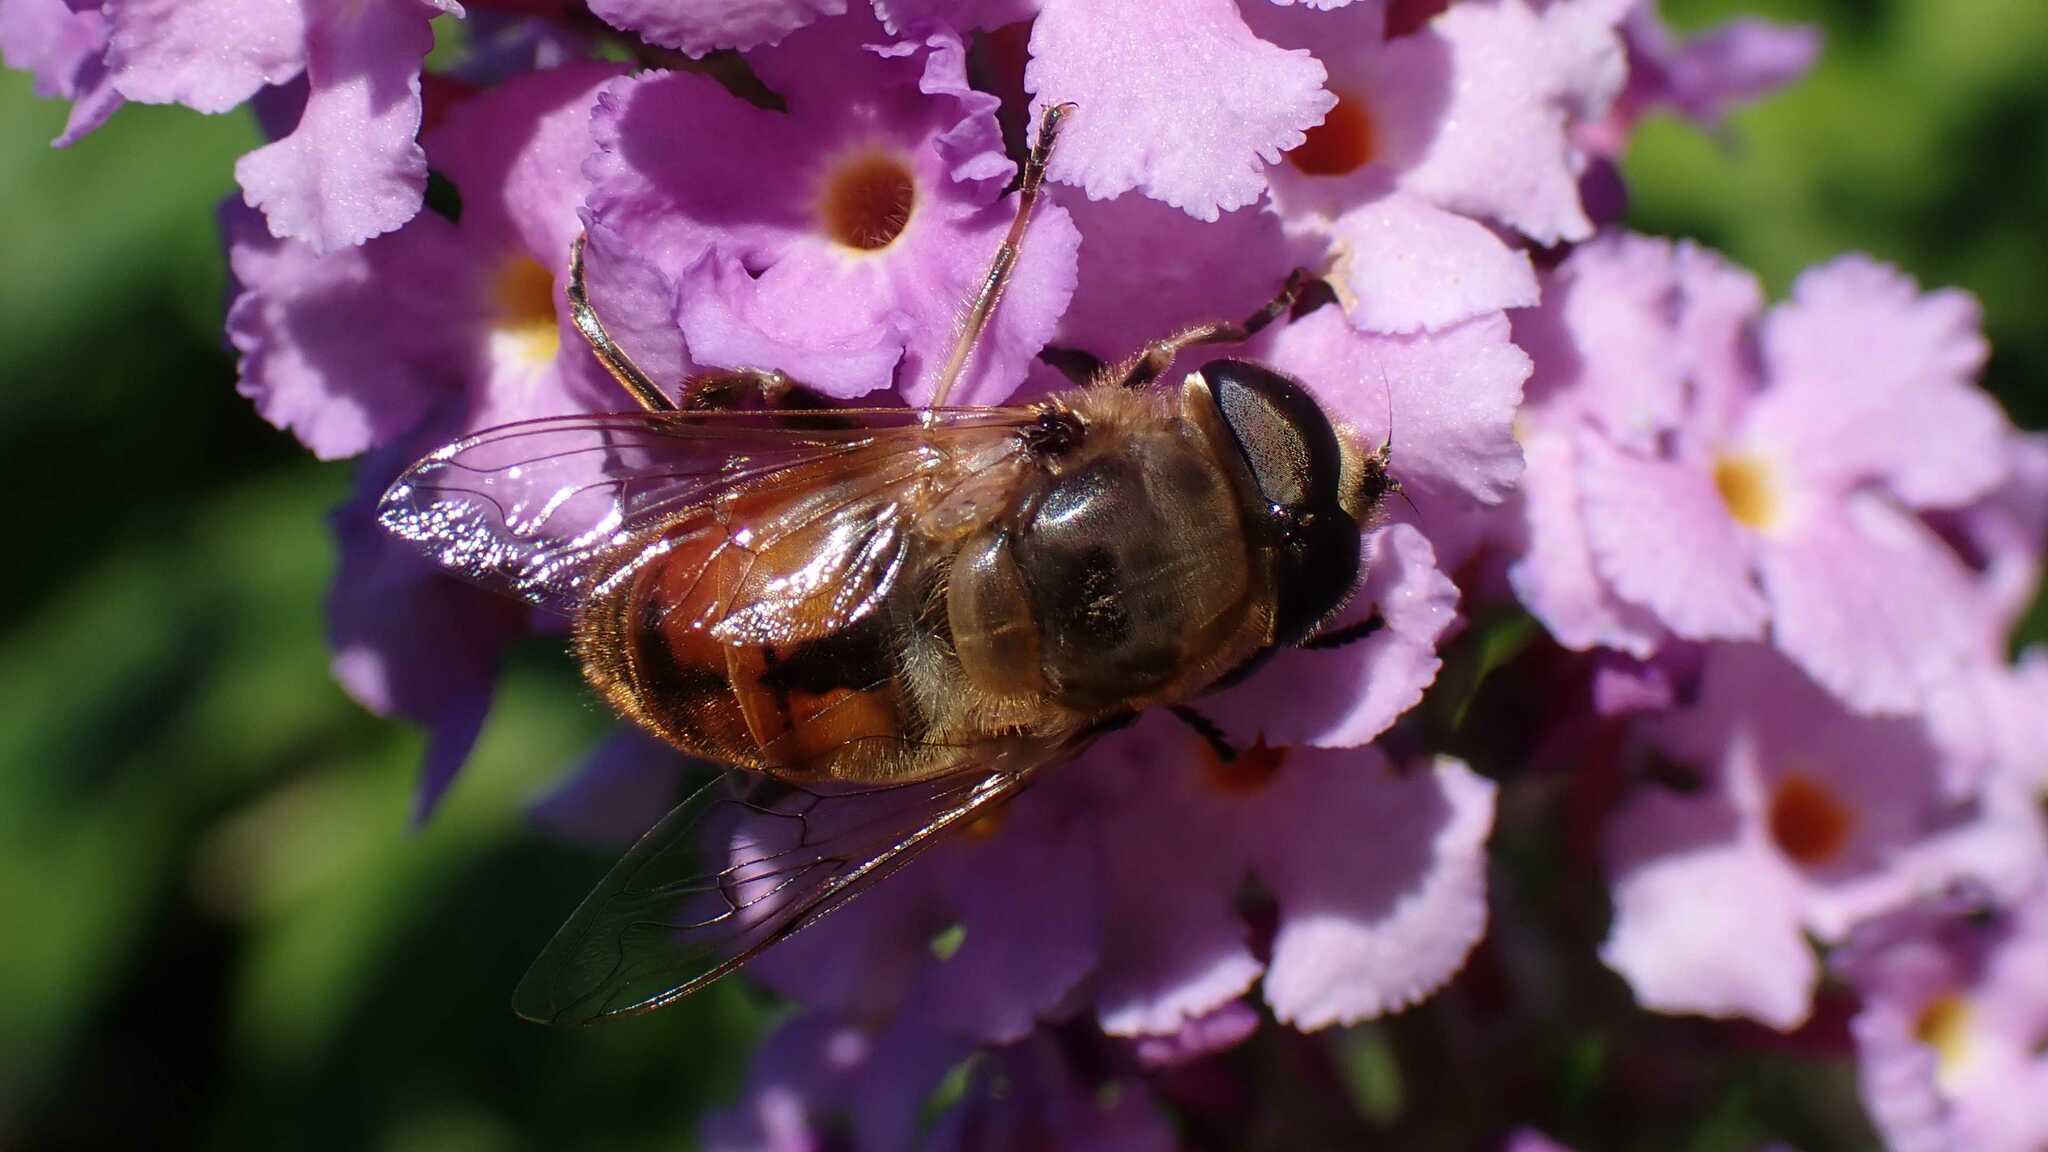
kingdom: Animalia
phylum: Arthropoda
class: Insecta
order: Diptera
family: Syrphidae
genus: Eristalis
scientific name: Eristalis tenax
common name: Drone fly
